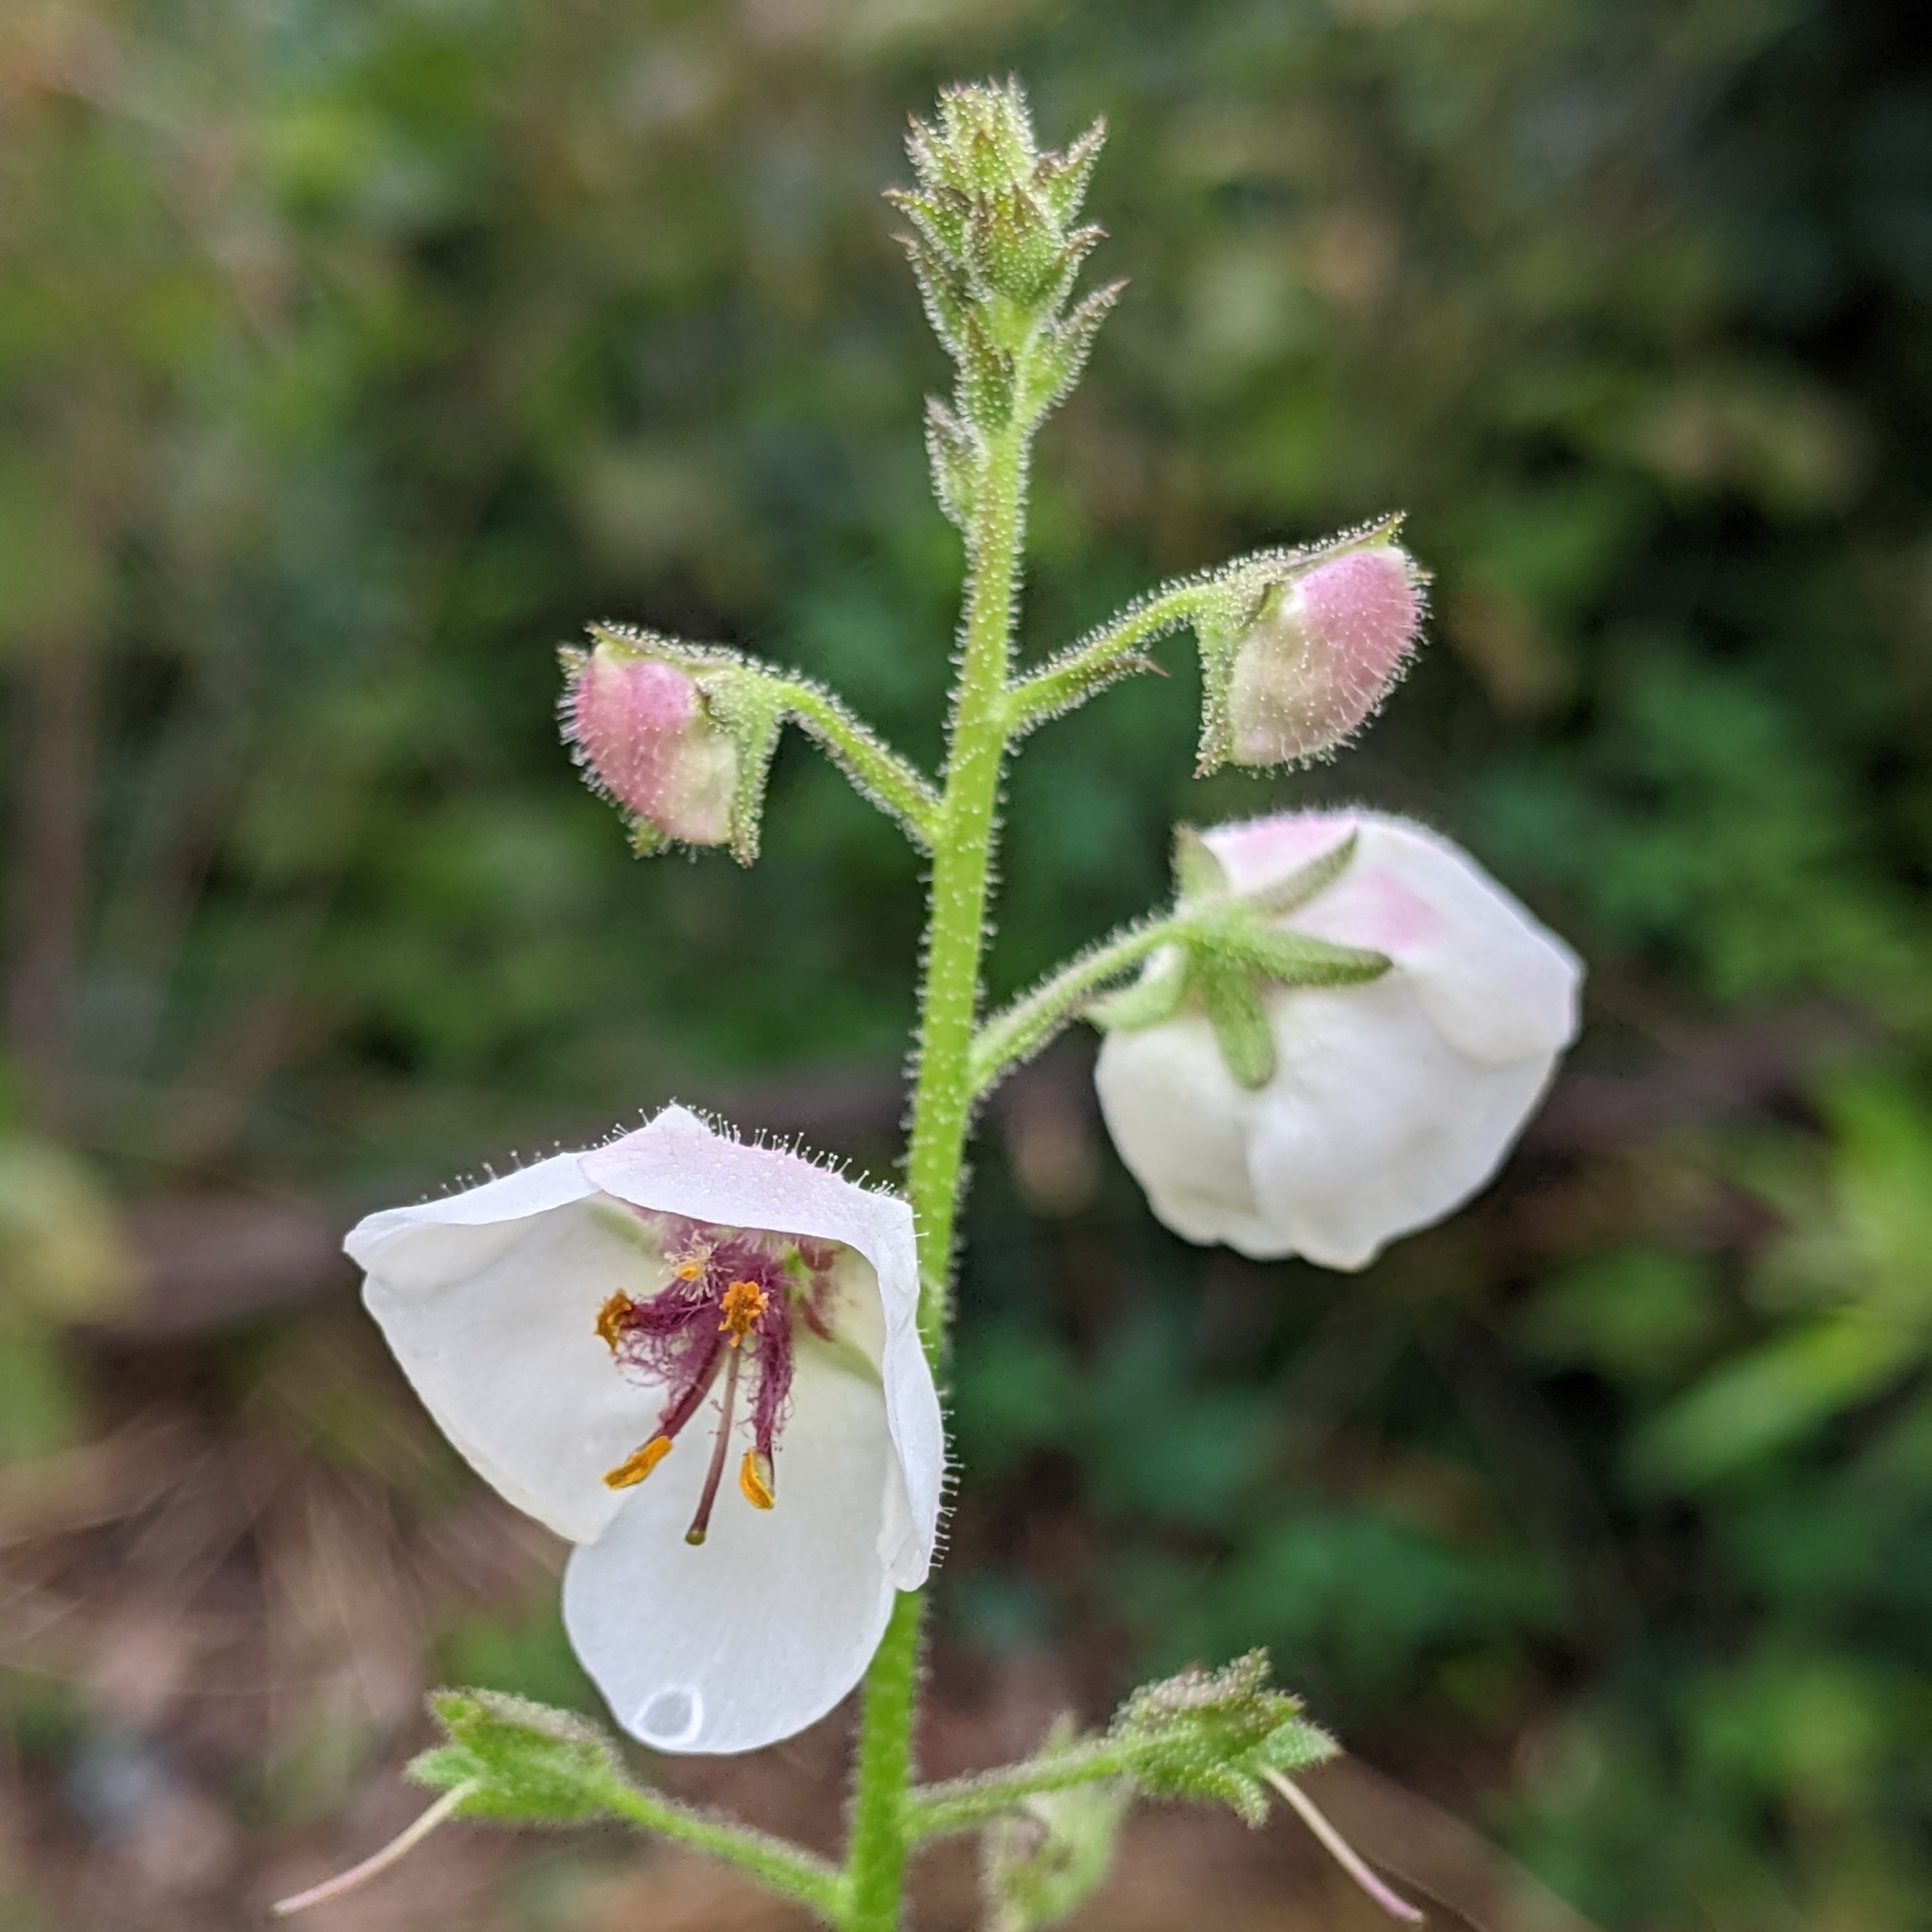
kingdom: Plantae
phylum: Tracheophyta
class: Magnoliopsida
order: Lamiales
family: Scrophulariaceae
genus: Verbascum
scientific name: Verbascum blattaria
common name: Moth mullein
